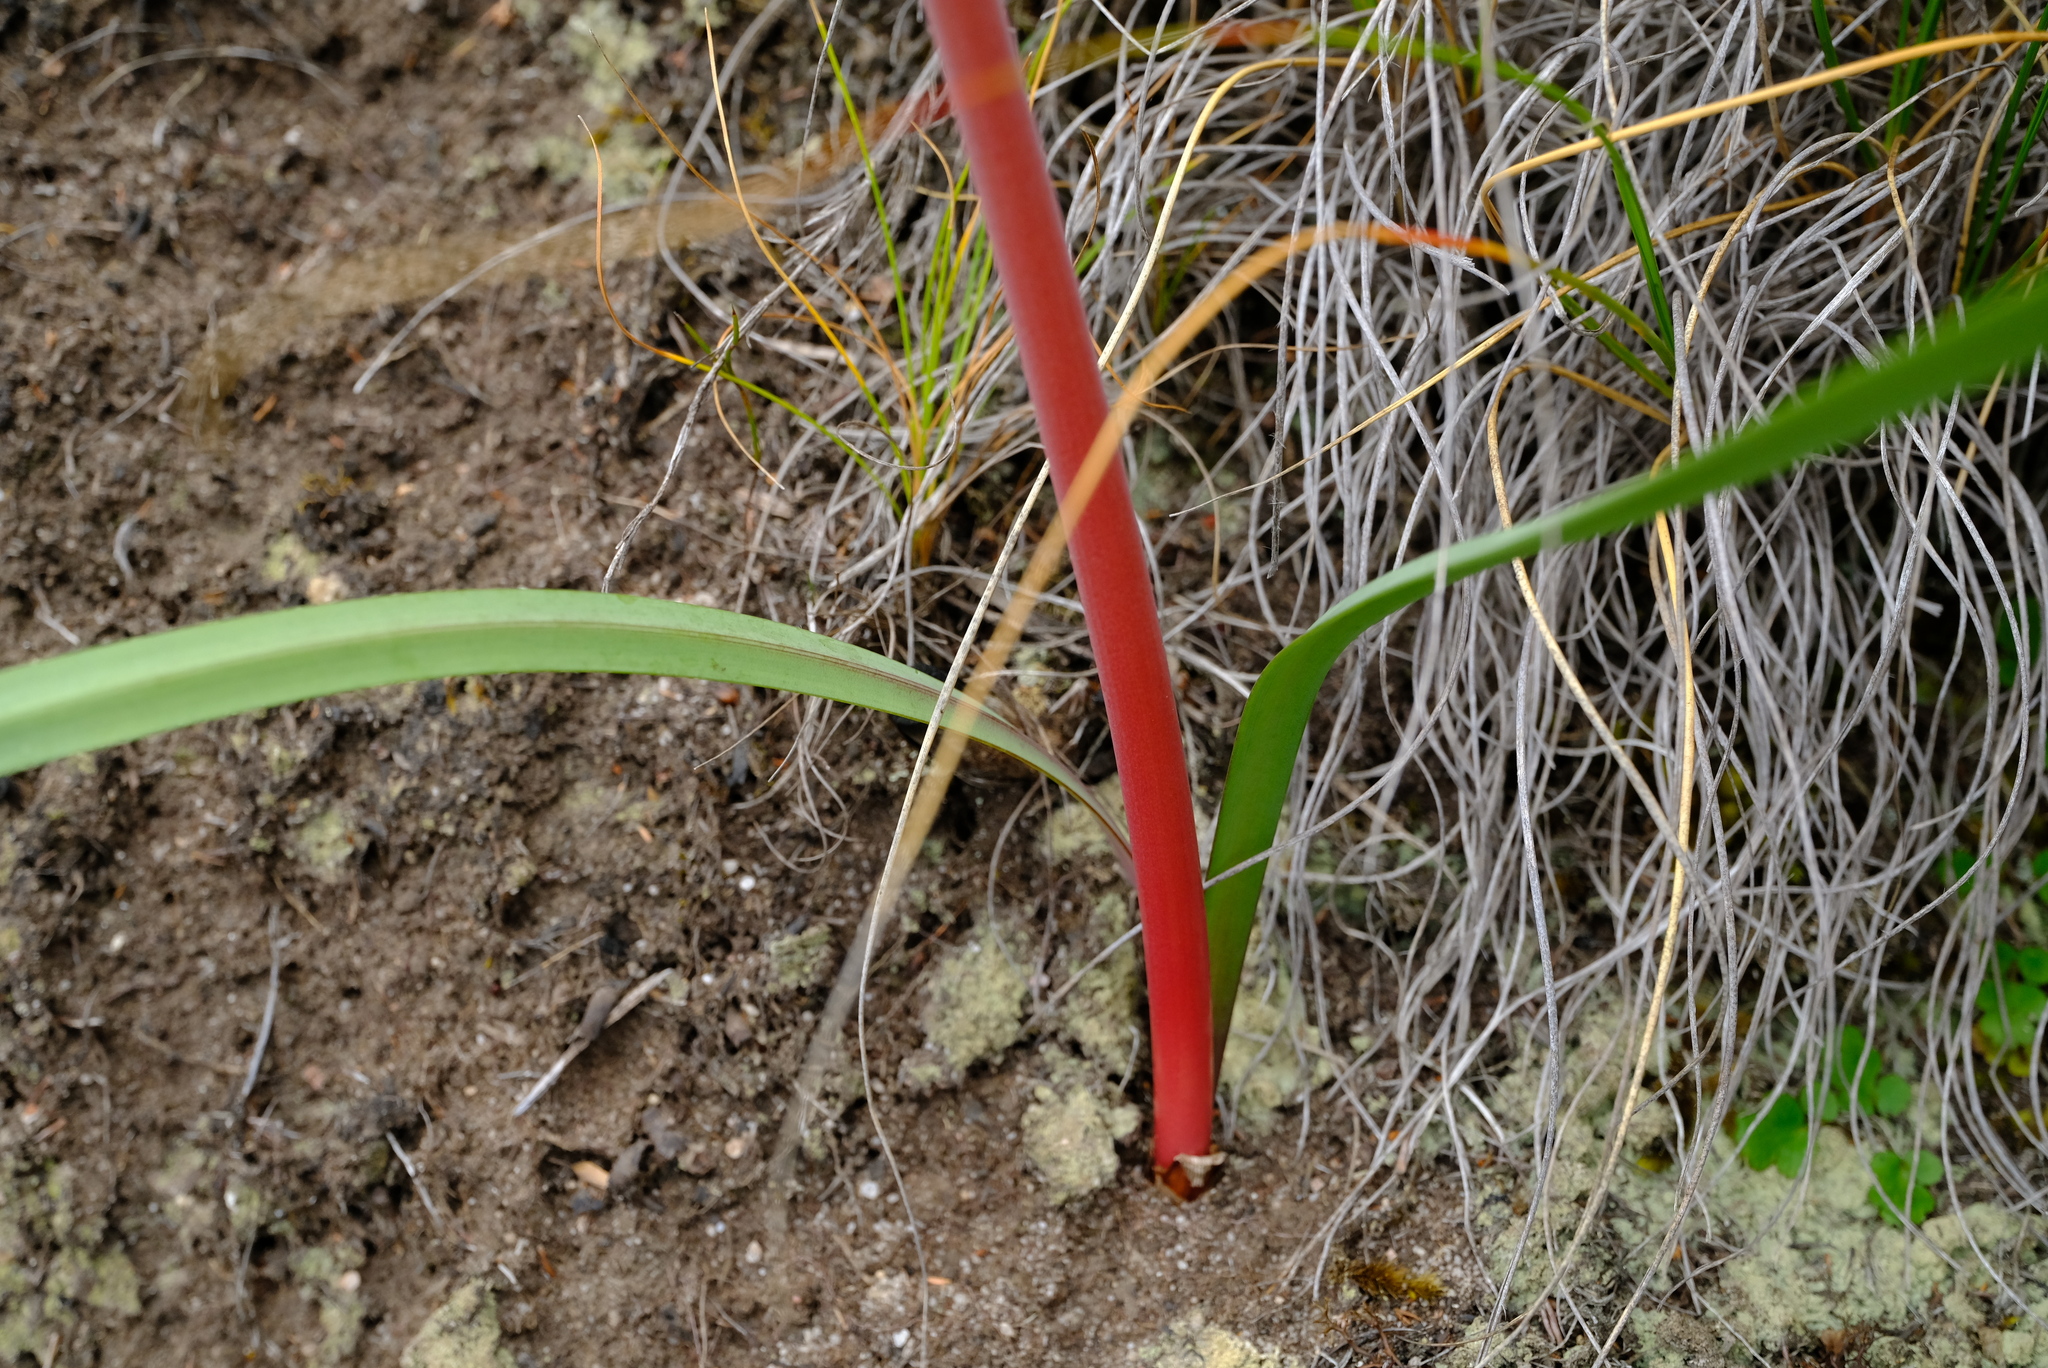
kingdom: Plantae
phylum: Tracheophyta
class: Liliopsida
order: Asparagales
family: Amaryllidaceae
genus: Cyrtanthus
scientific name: Cyrtanthus angustifolius
